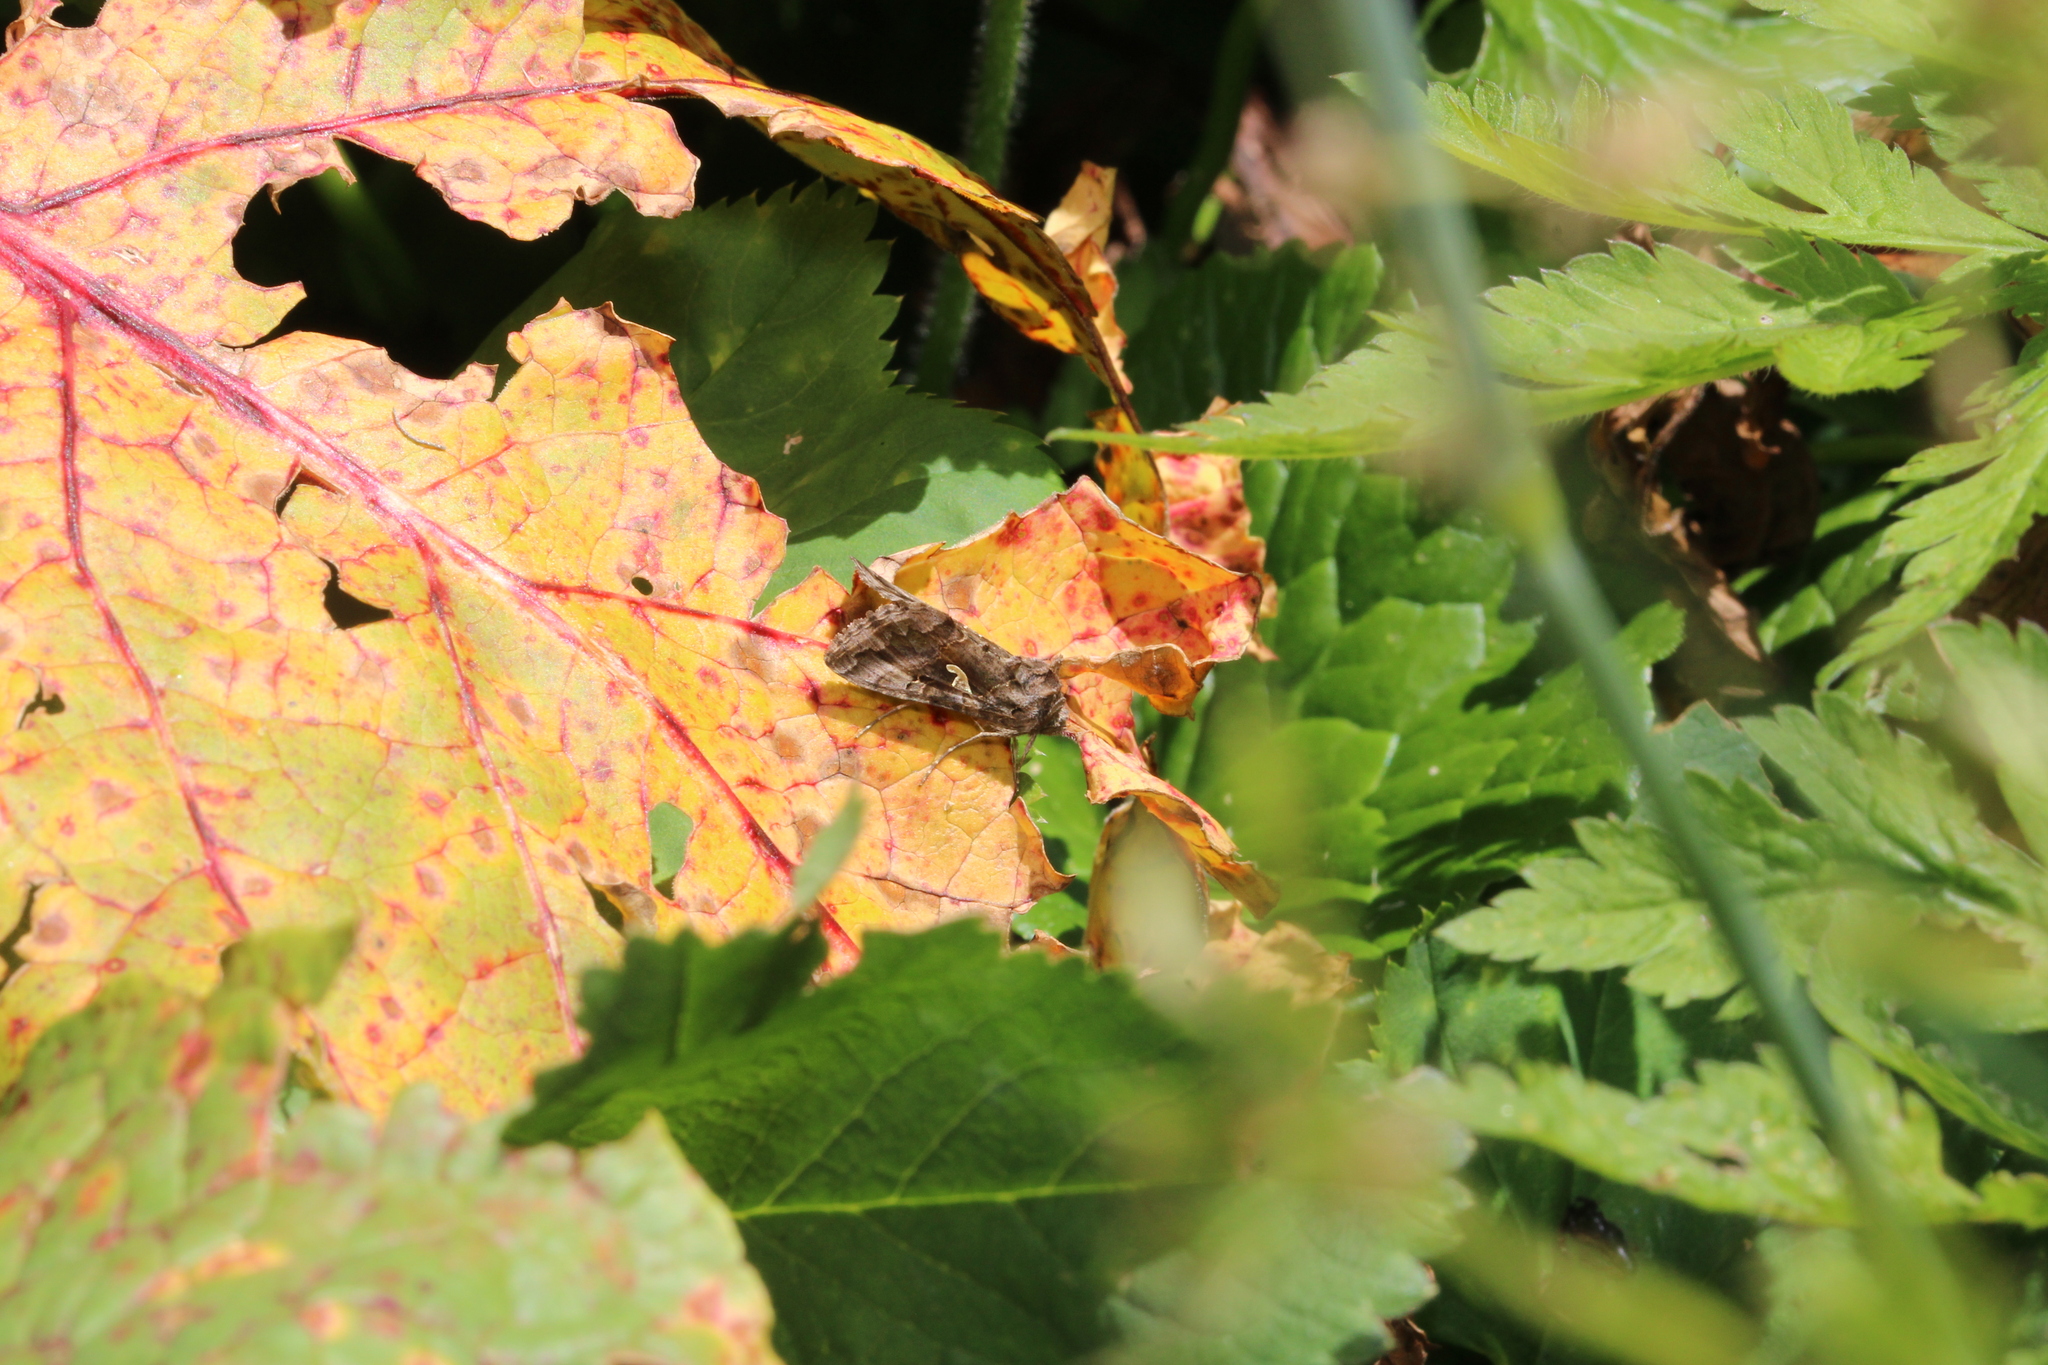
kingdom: Animalia
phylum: Arthropoda
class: Insecta
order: Lepidoptera
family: Noctuidae
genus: Autographa
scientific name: Autographa gamma
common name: Silver y
